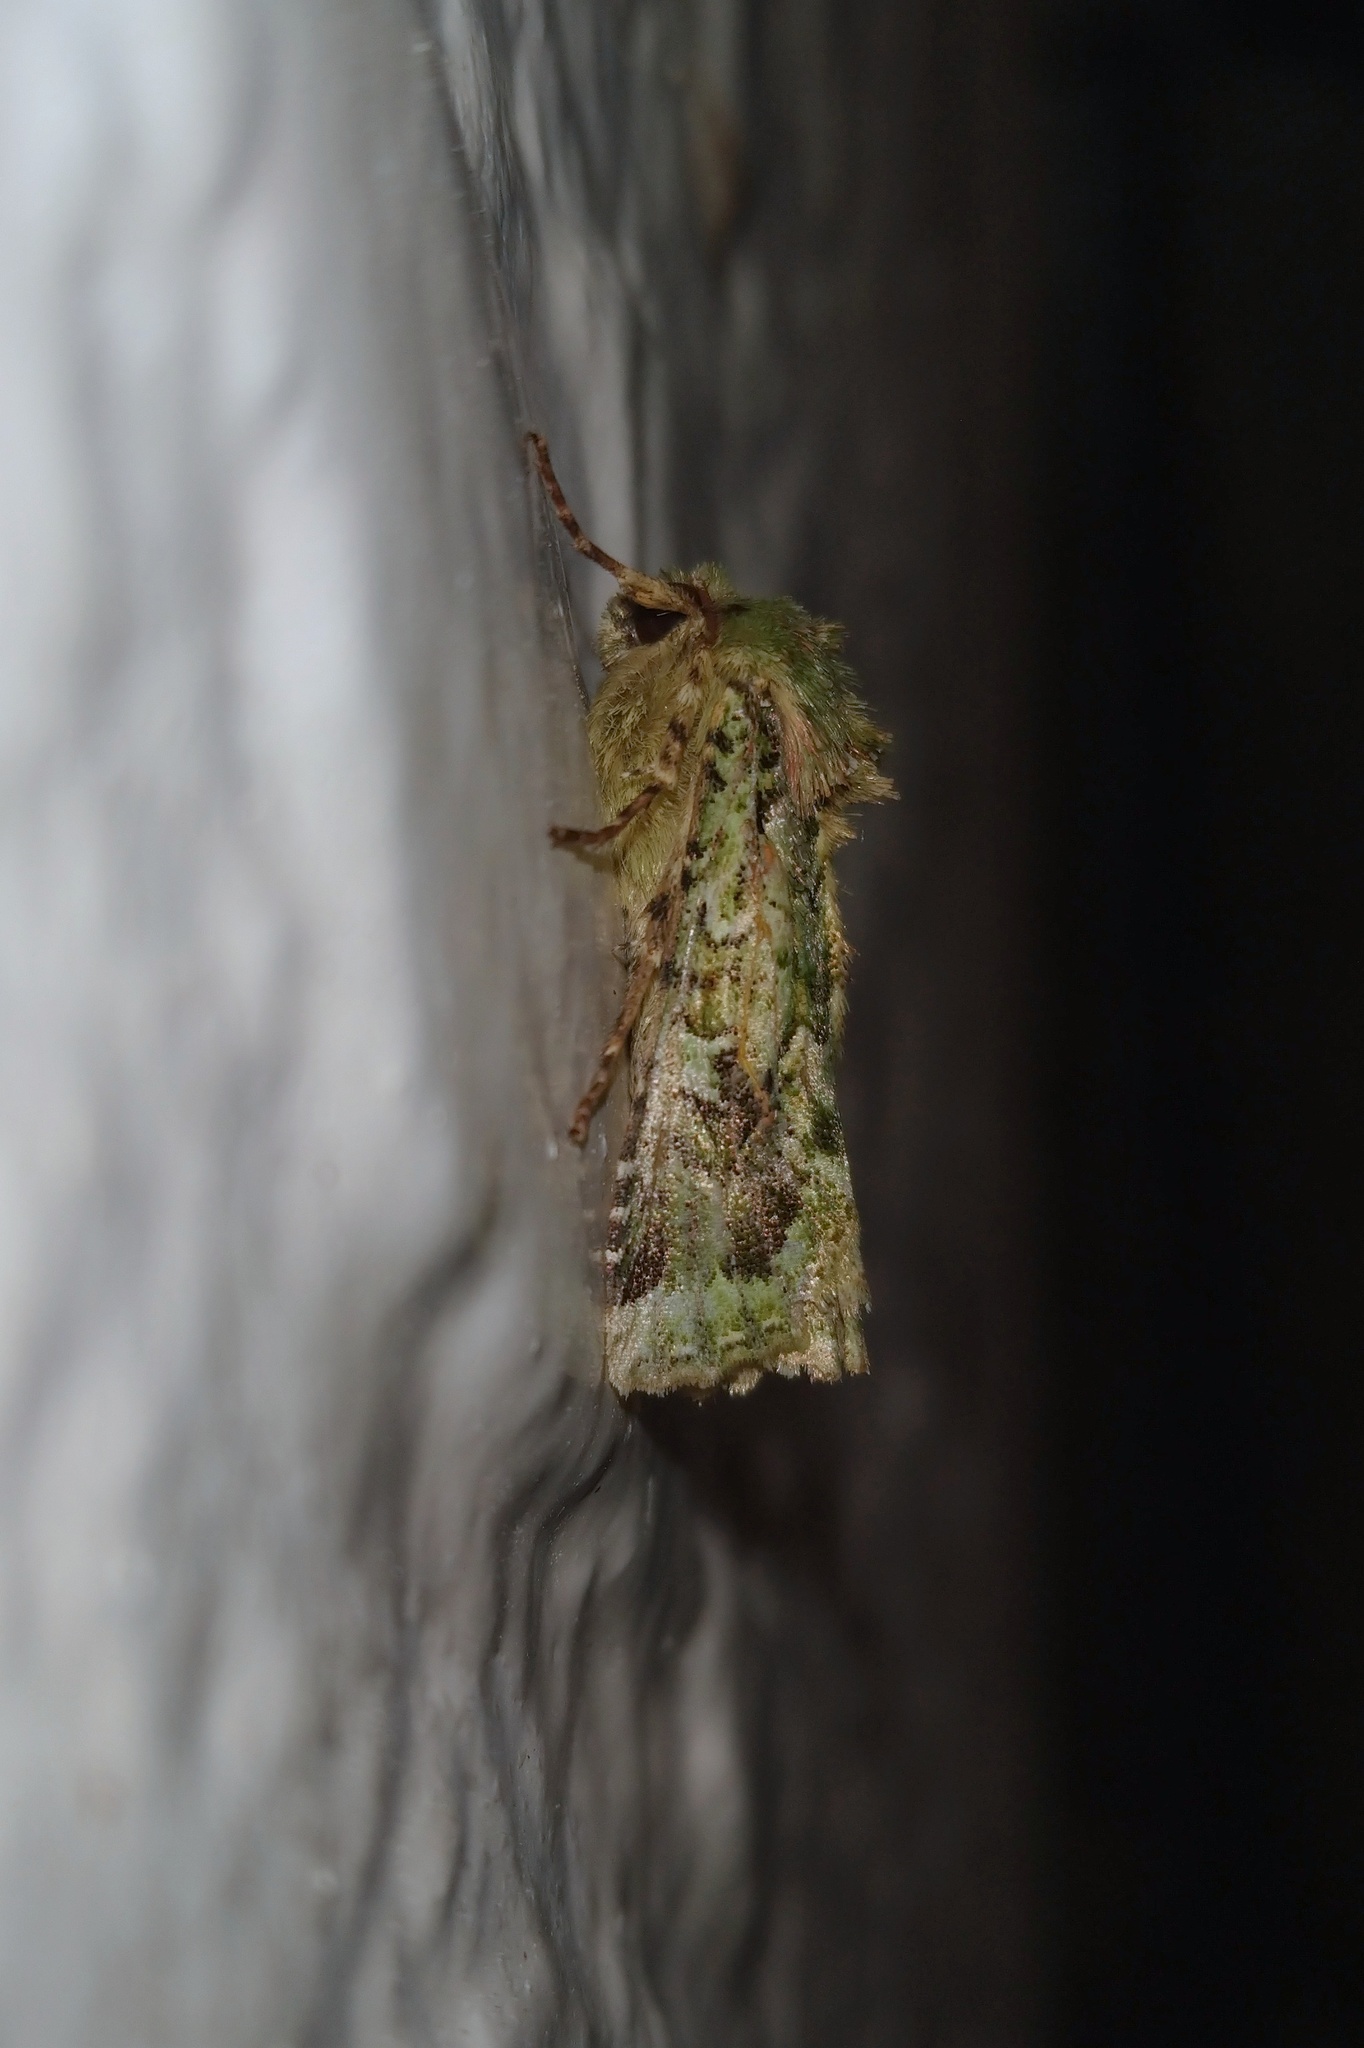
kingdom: Animalia
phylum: Arthropoda
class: Insecta
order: Lepidoptera
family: Noctuidae
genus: Feredayia
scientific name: Feredayia grammosa
